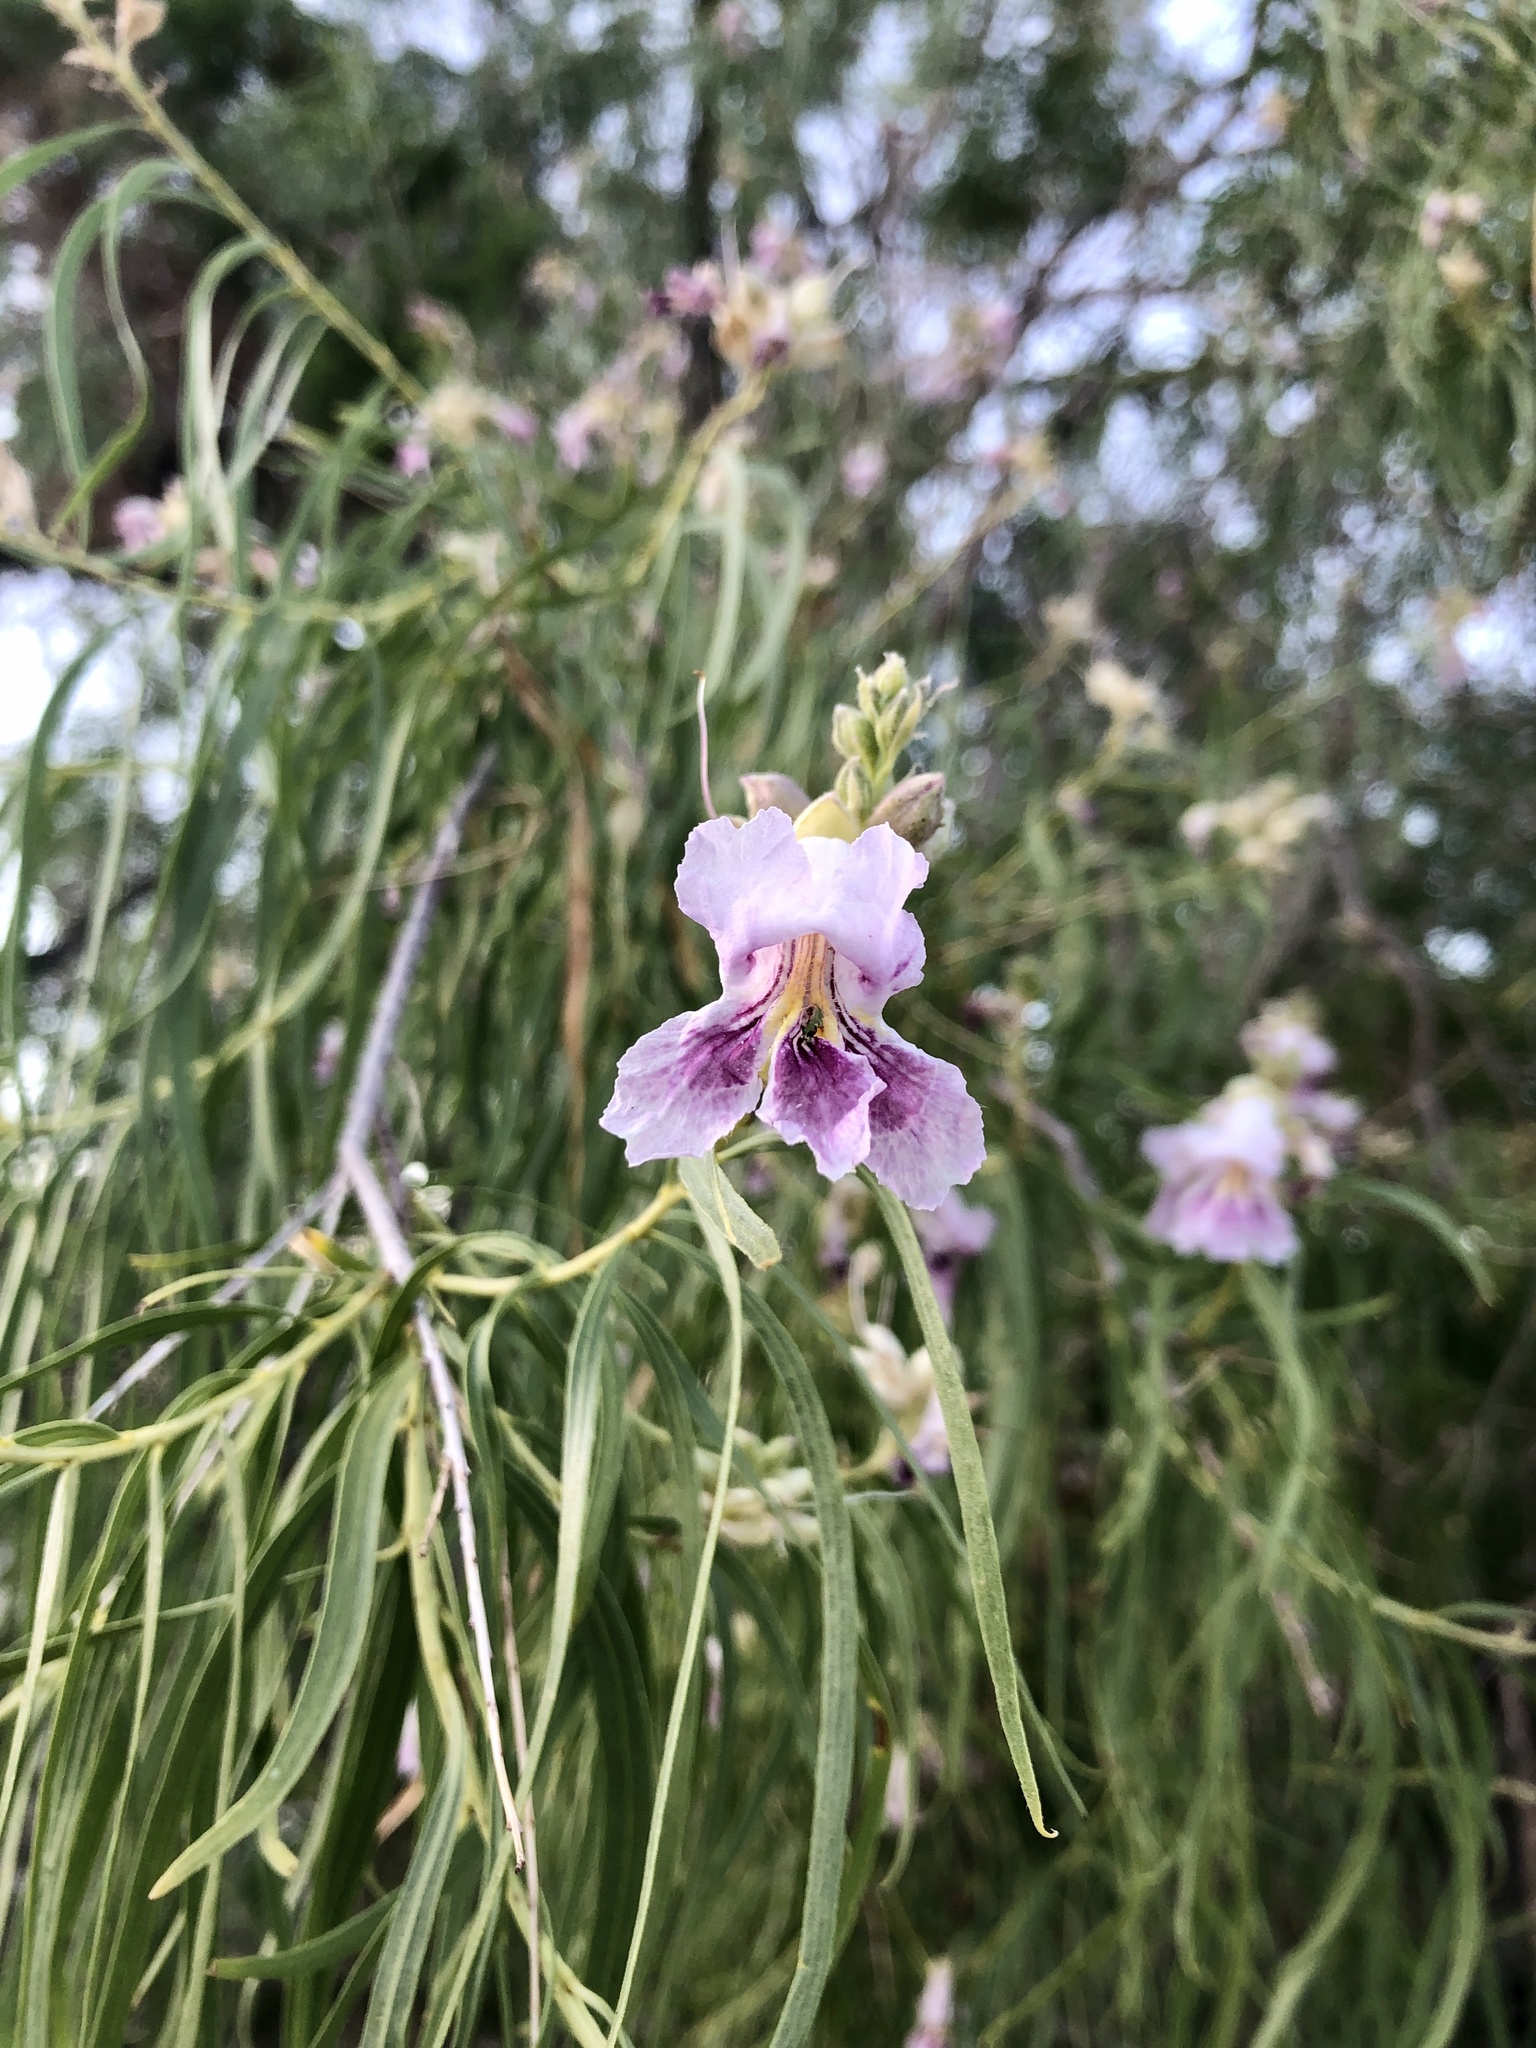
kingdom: Plantae
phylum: Tracheophyta
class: Magnoliopsida
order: Lamiales
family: Bignoniaceae
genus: Chilopsis
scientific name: Chilopsis linearis
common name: Desert-willow
